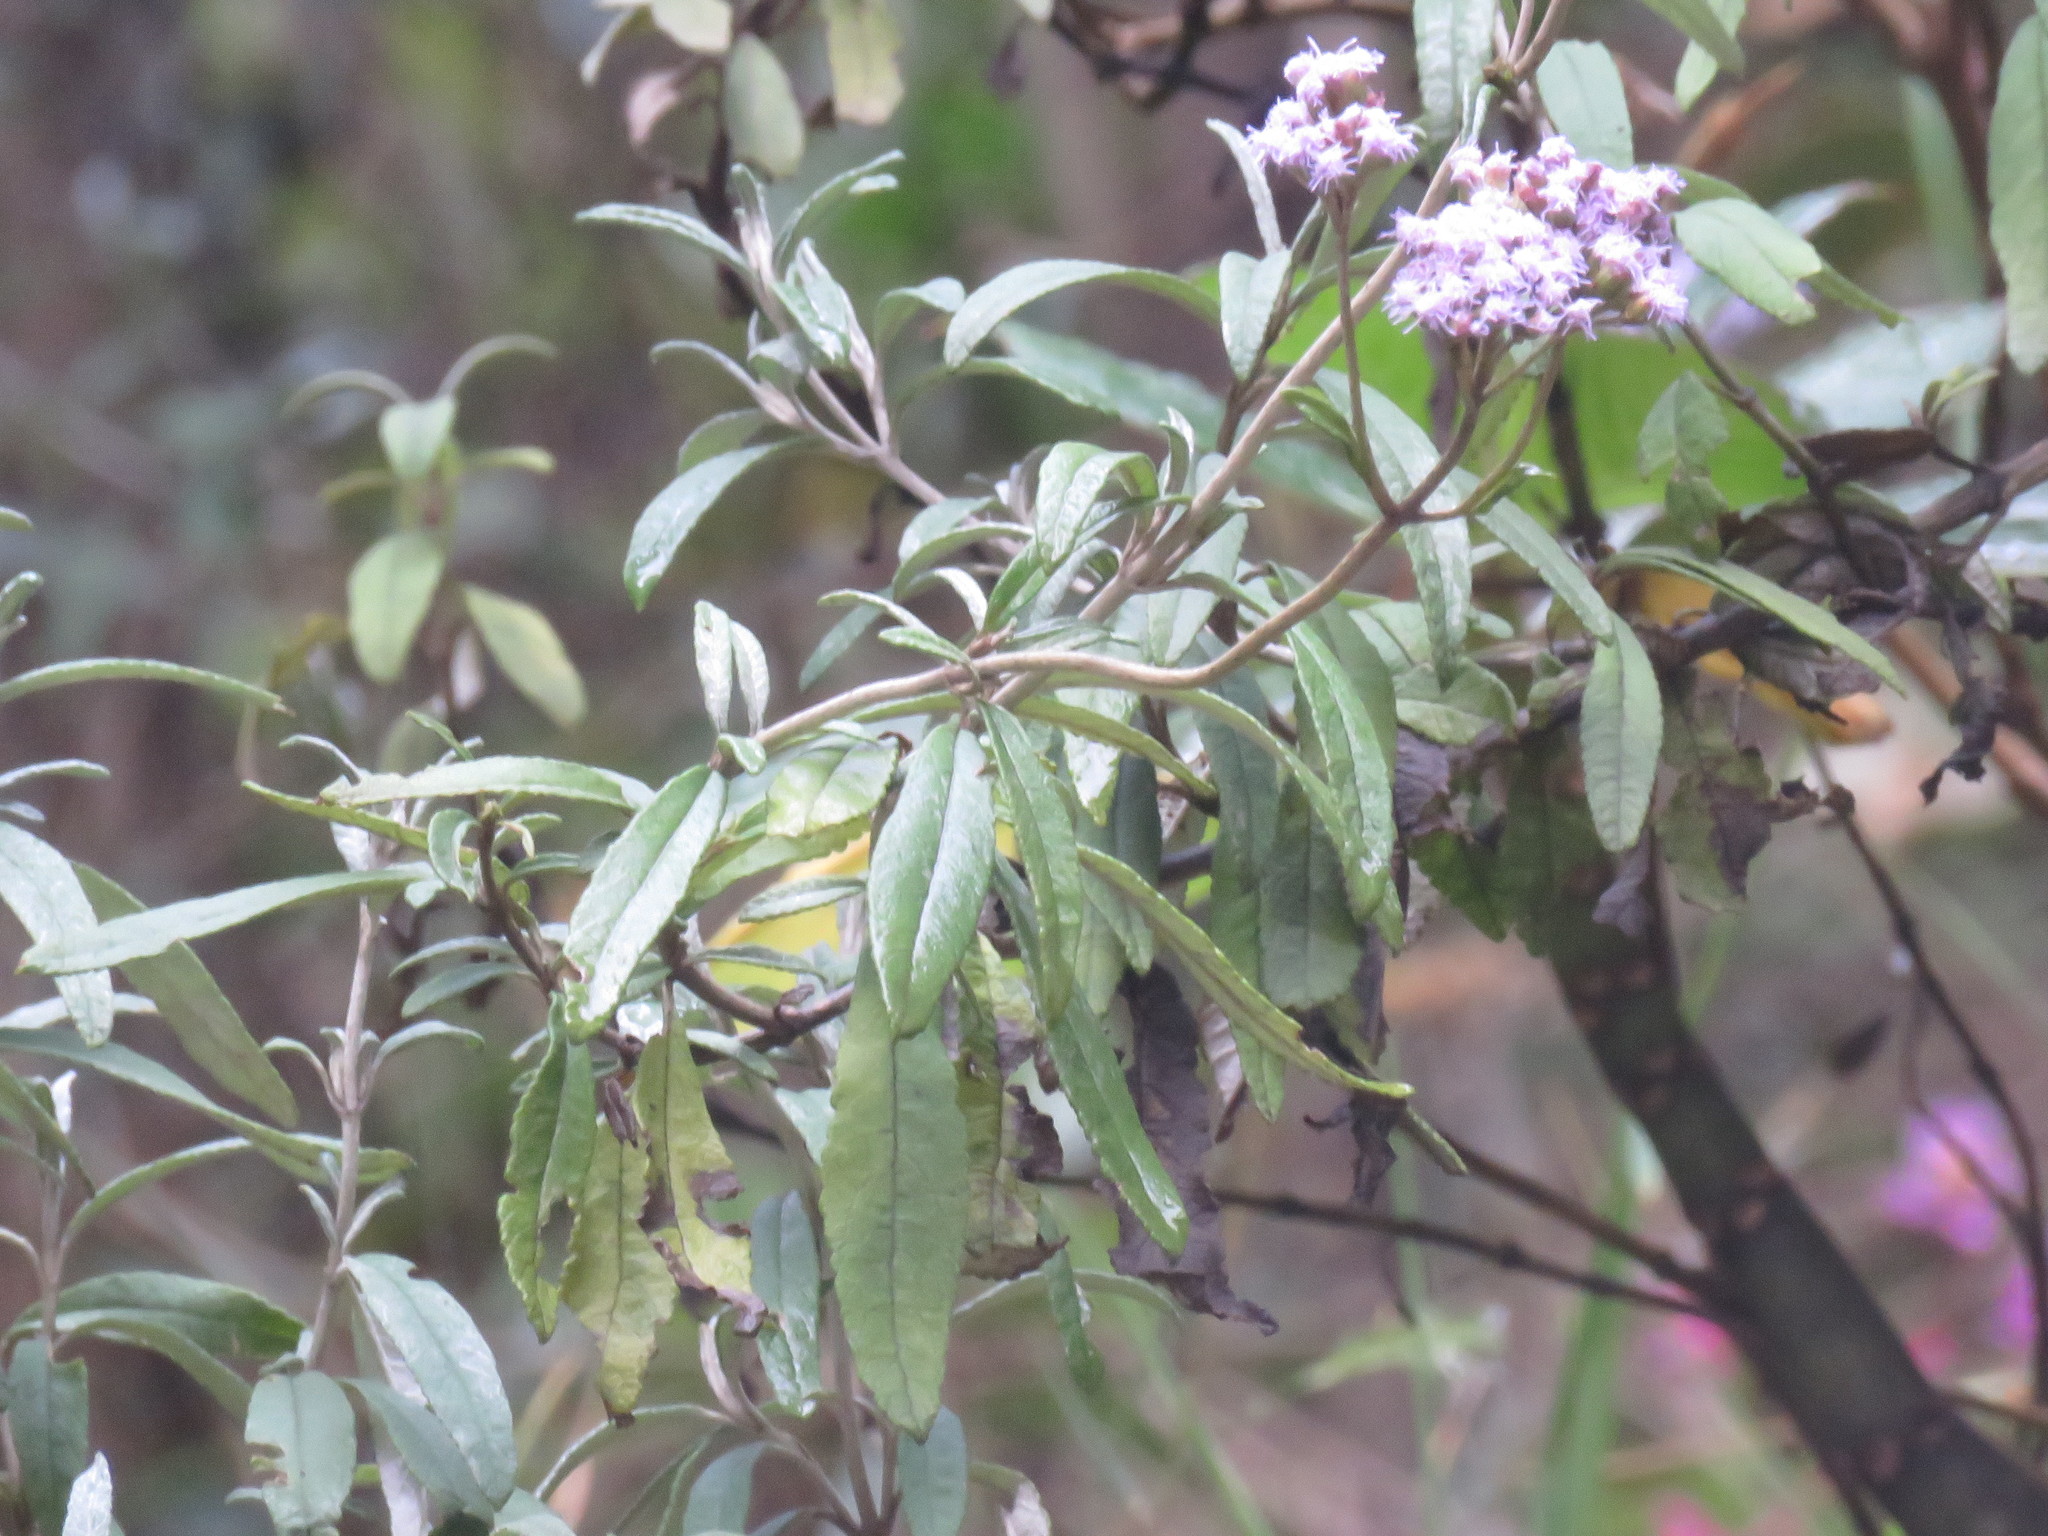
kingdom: Plantae
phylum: Tracheophyta
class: Magnoliopsida
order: Asterales
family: Asteraceae
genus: Lourteigia
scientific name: Lourteigia stoechadifolia
